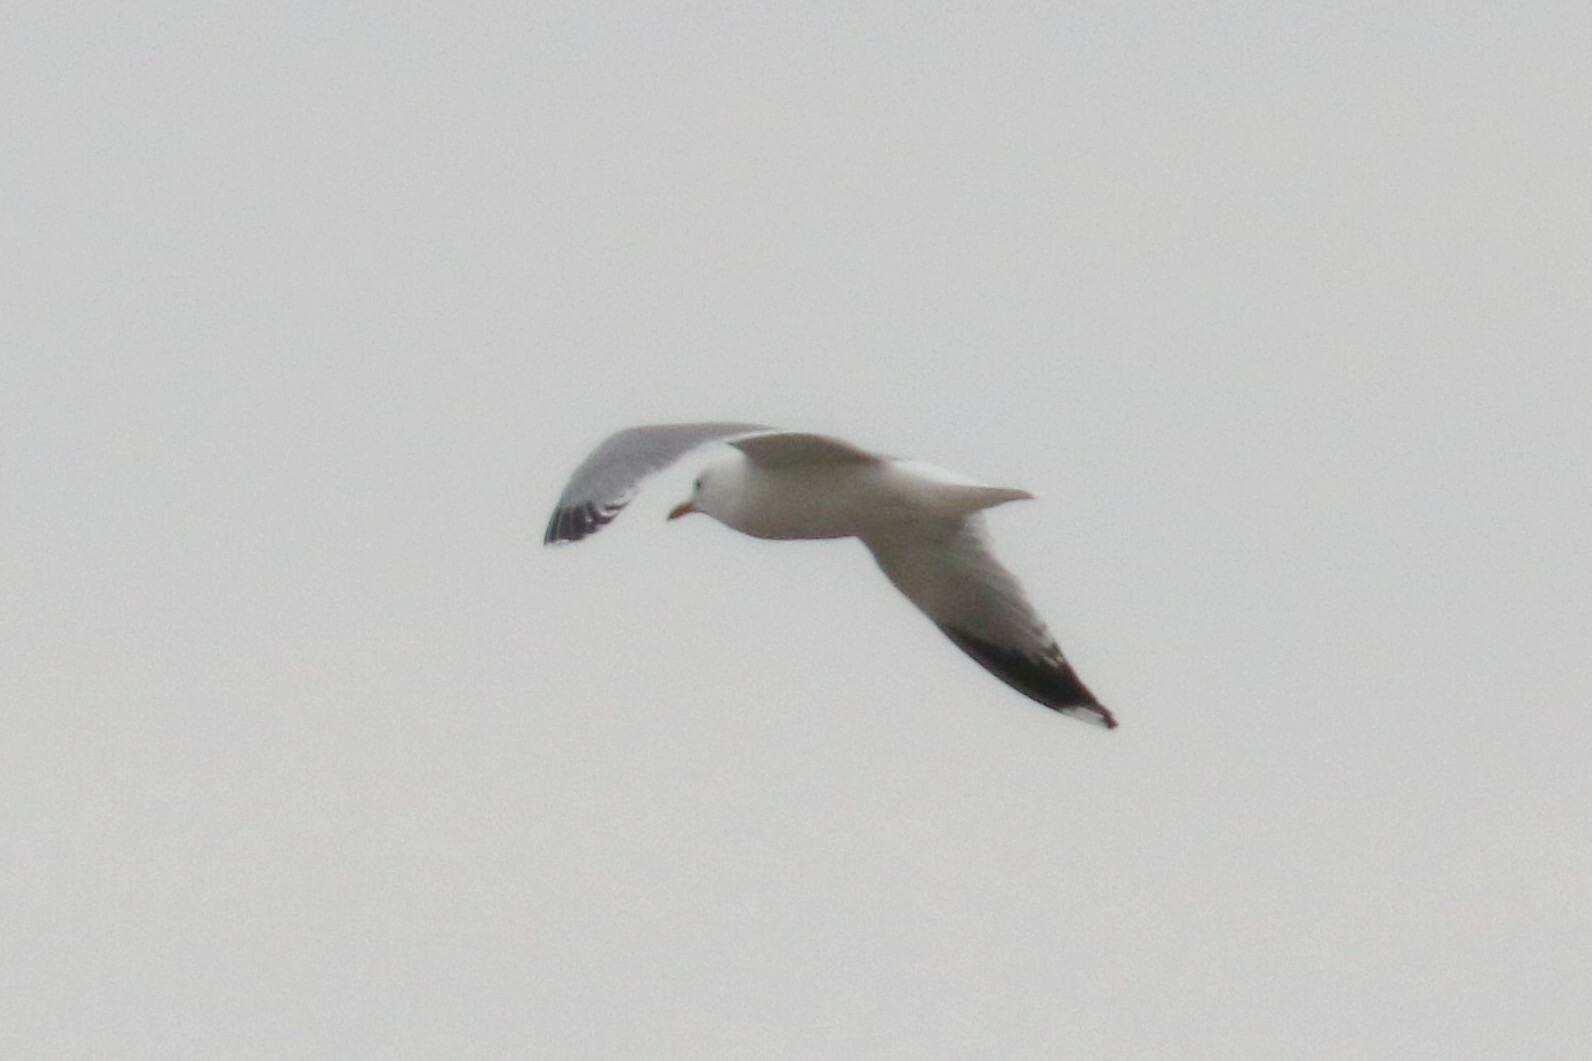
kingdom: Animalia
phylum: Chordata
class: Aves
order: Charadriiformes
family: Laridae
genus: Larus
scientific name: Larus canus
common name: Mew gull
